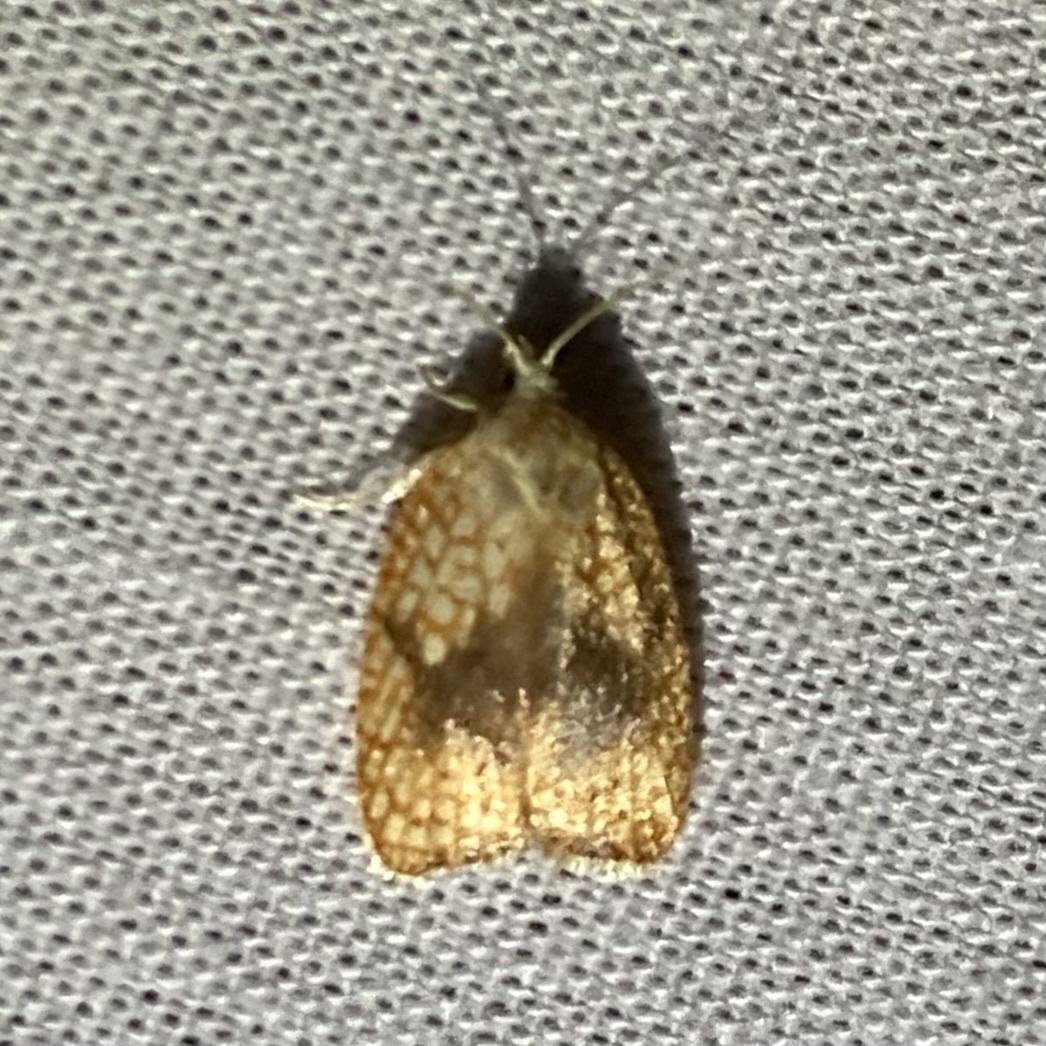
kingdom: Animalia
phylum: Arthropoda
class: Insecta
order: Lepidoptera
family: Tortricidae
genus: Acleris
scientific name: Acleris forsskaleana
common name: Maple button
